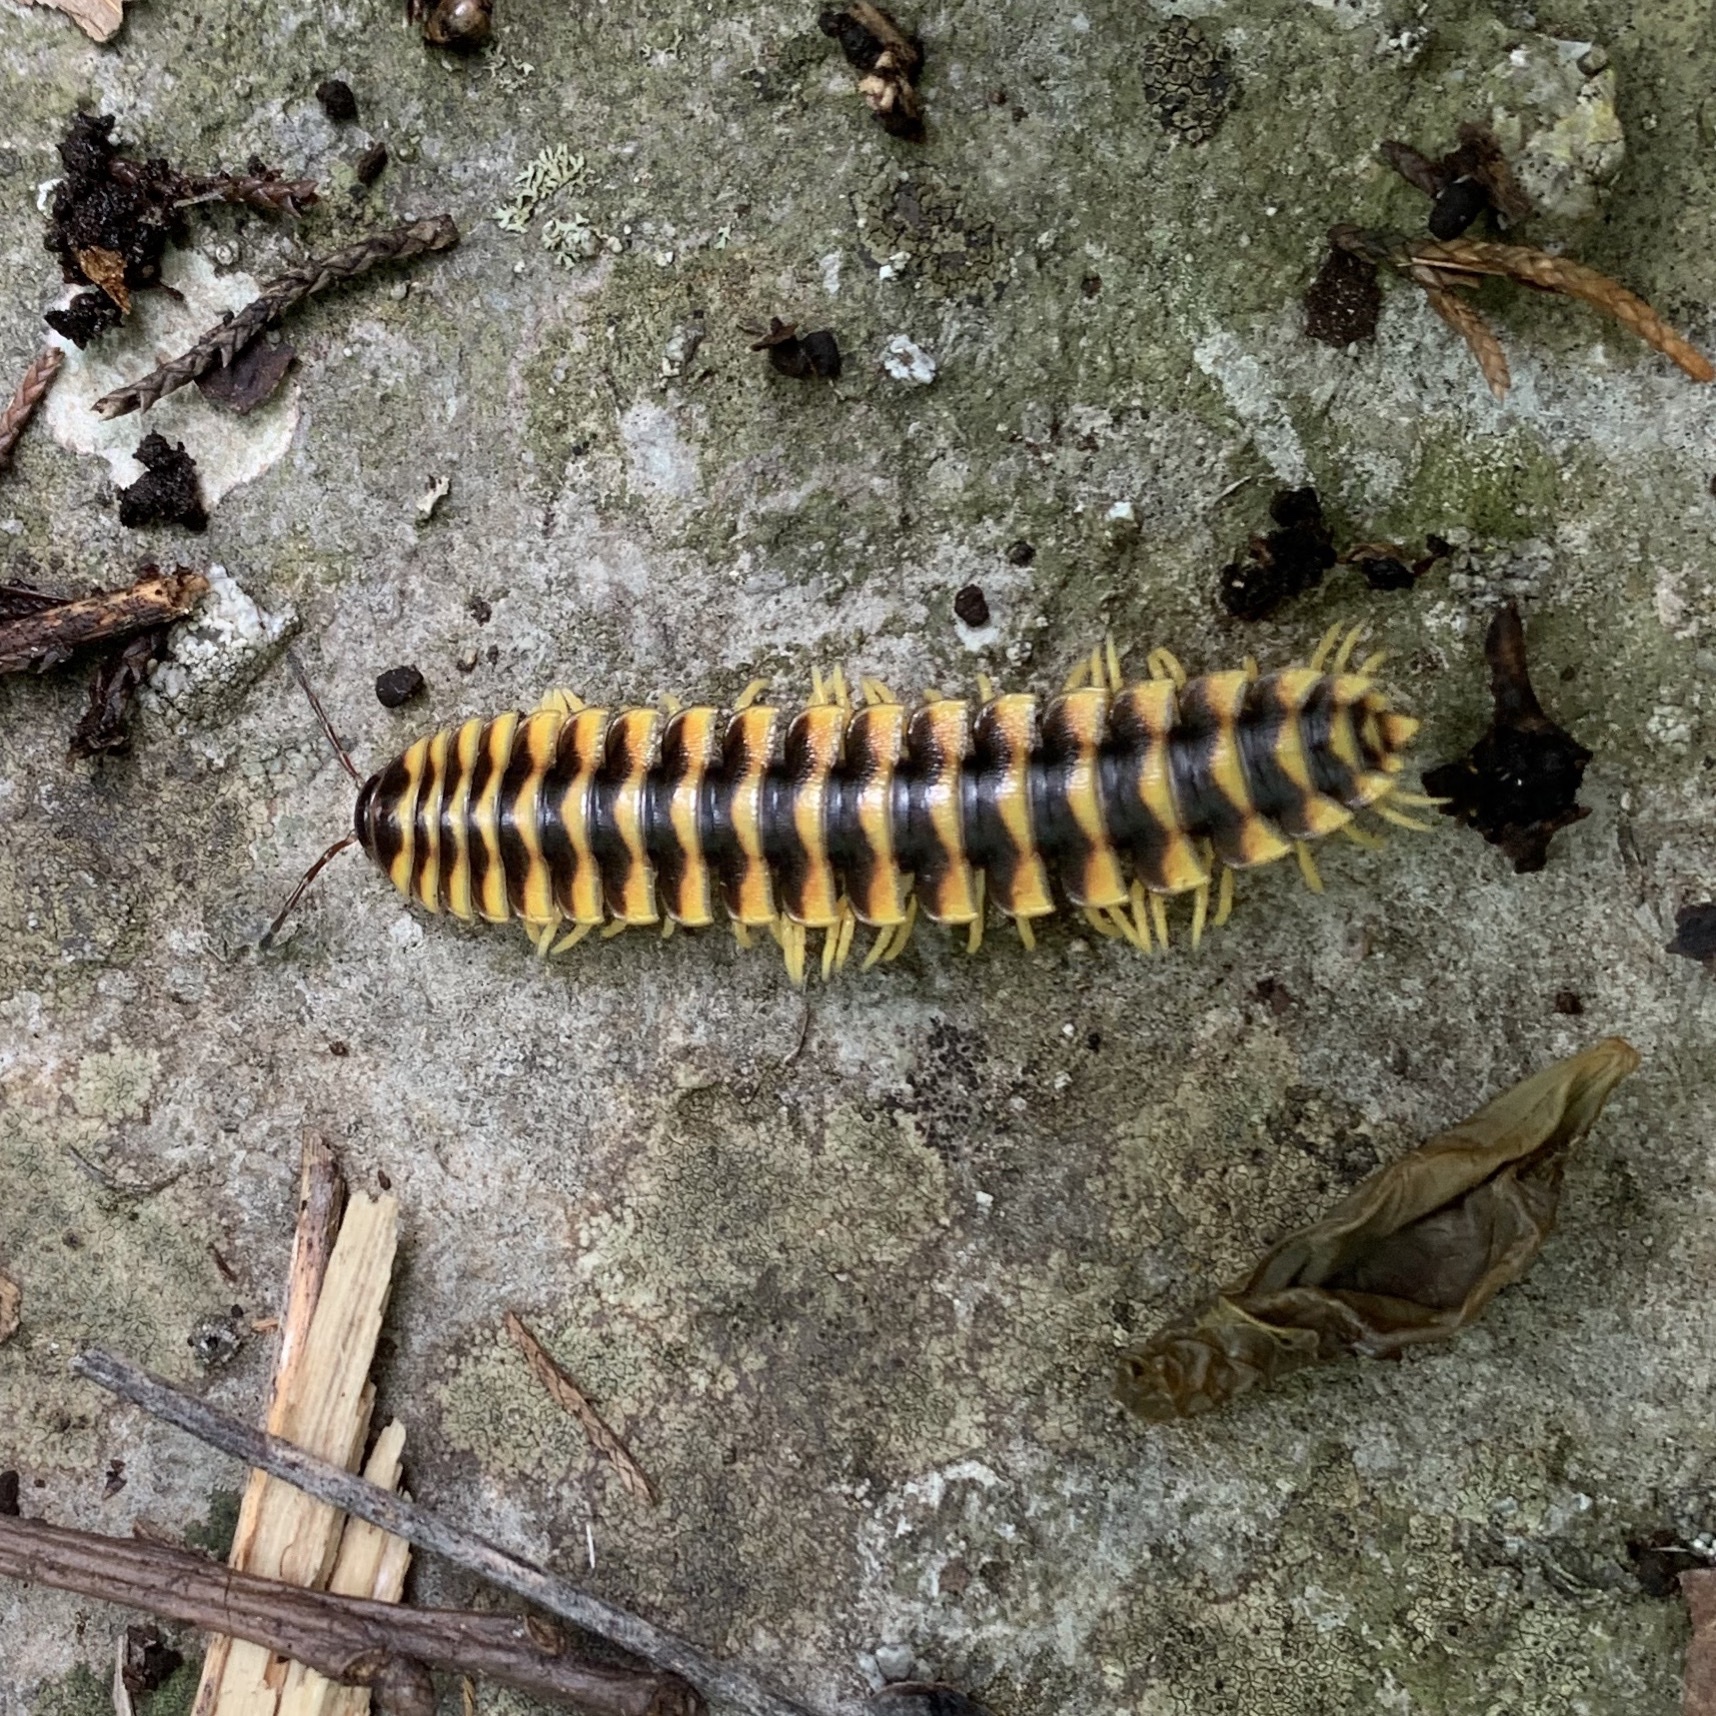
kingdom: Animalia
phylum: Arthropoda
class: Diplopoda
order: Polydesmida
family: Xystodesmidae
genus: Cherokia
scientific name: Cherokia georgiana
